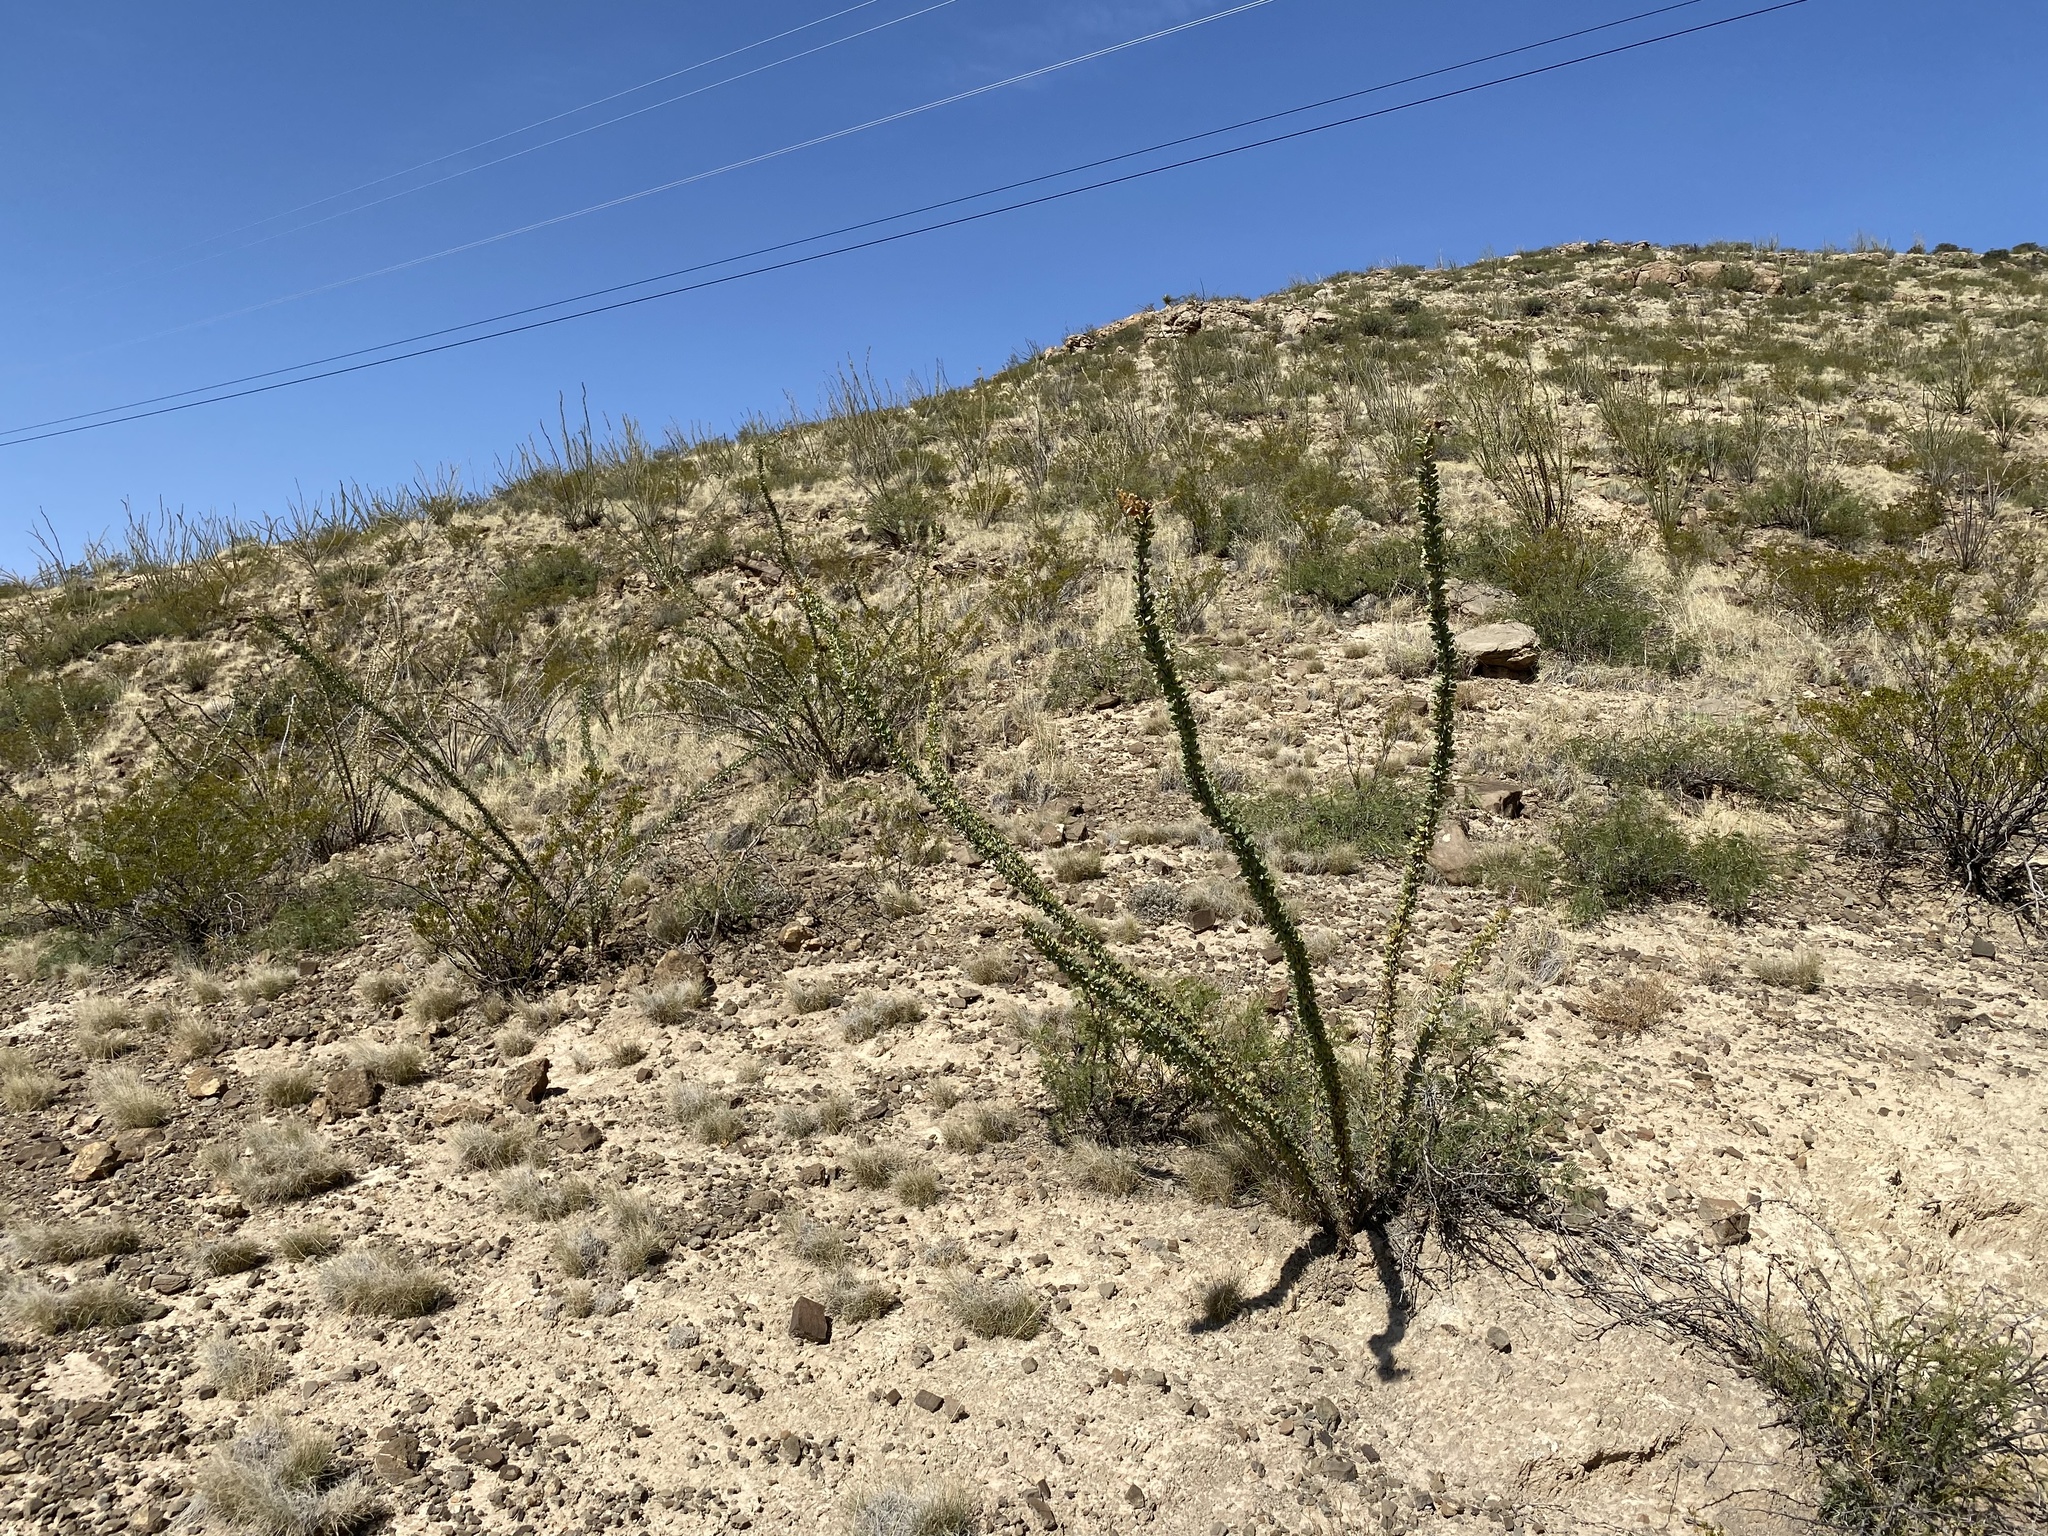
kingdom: Plantae
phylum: Tracheophyta
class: Magnoliopsida
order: Ericales
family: Fouquieriaceae
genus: Fouquieria
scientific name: Fouquieria splendens
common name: Vine-cactus
